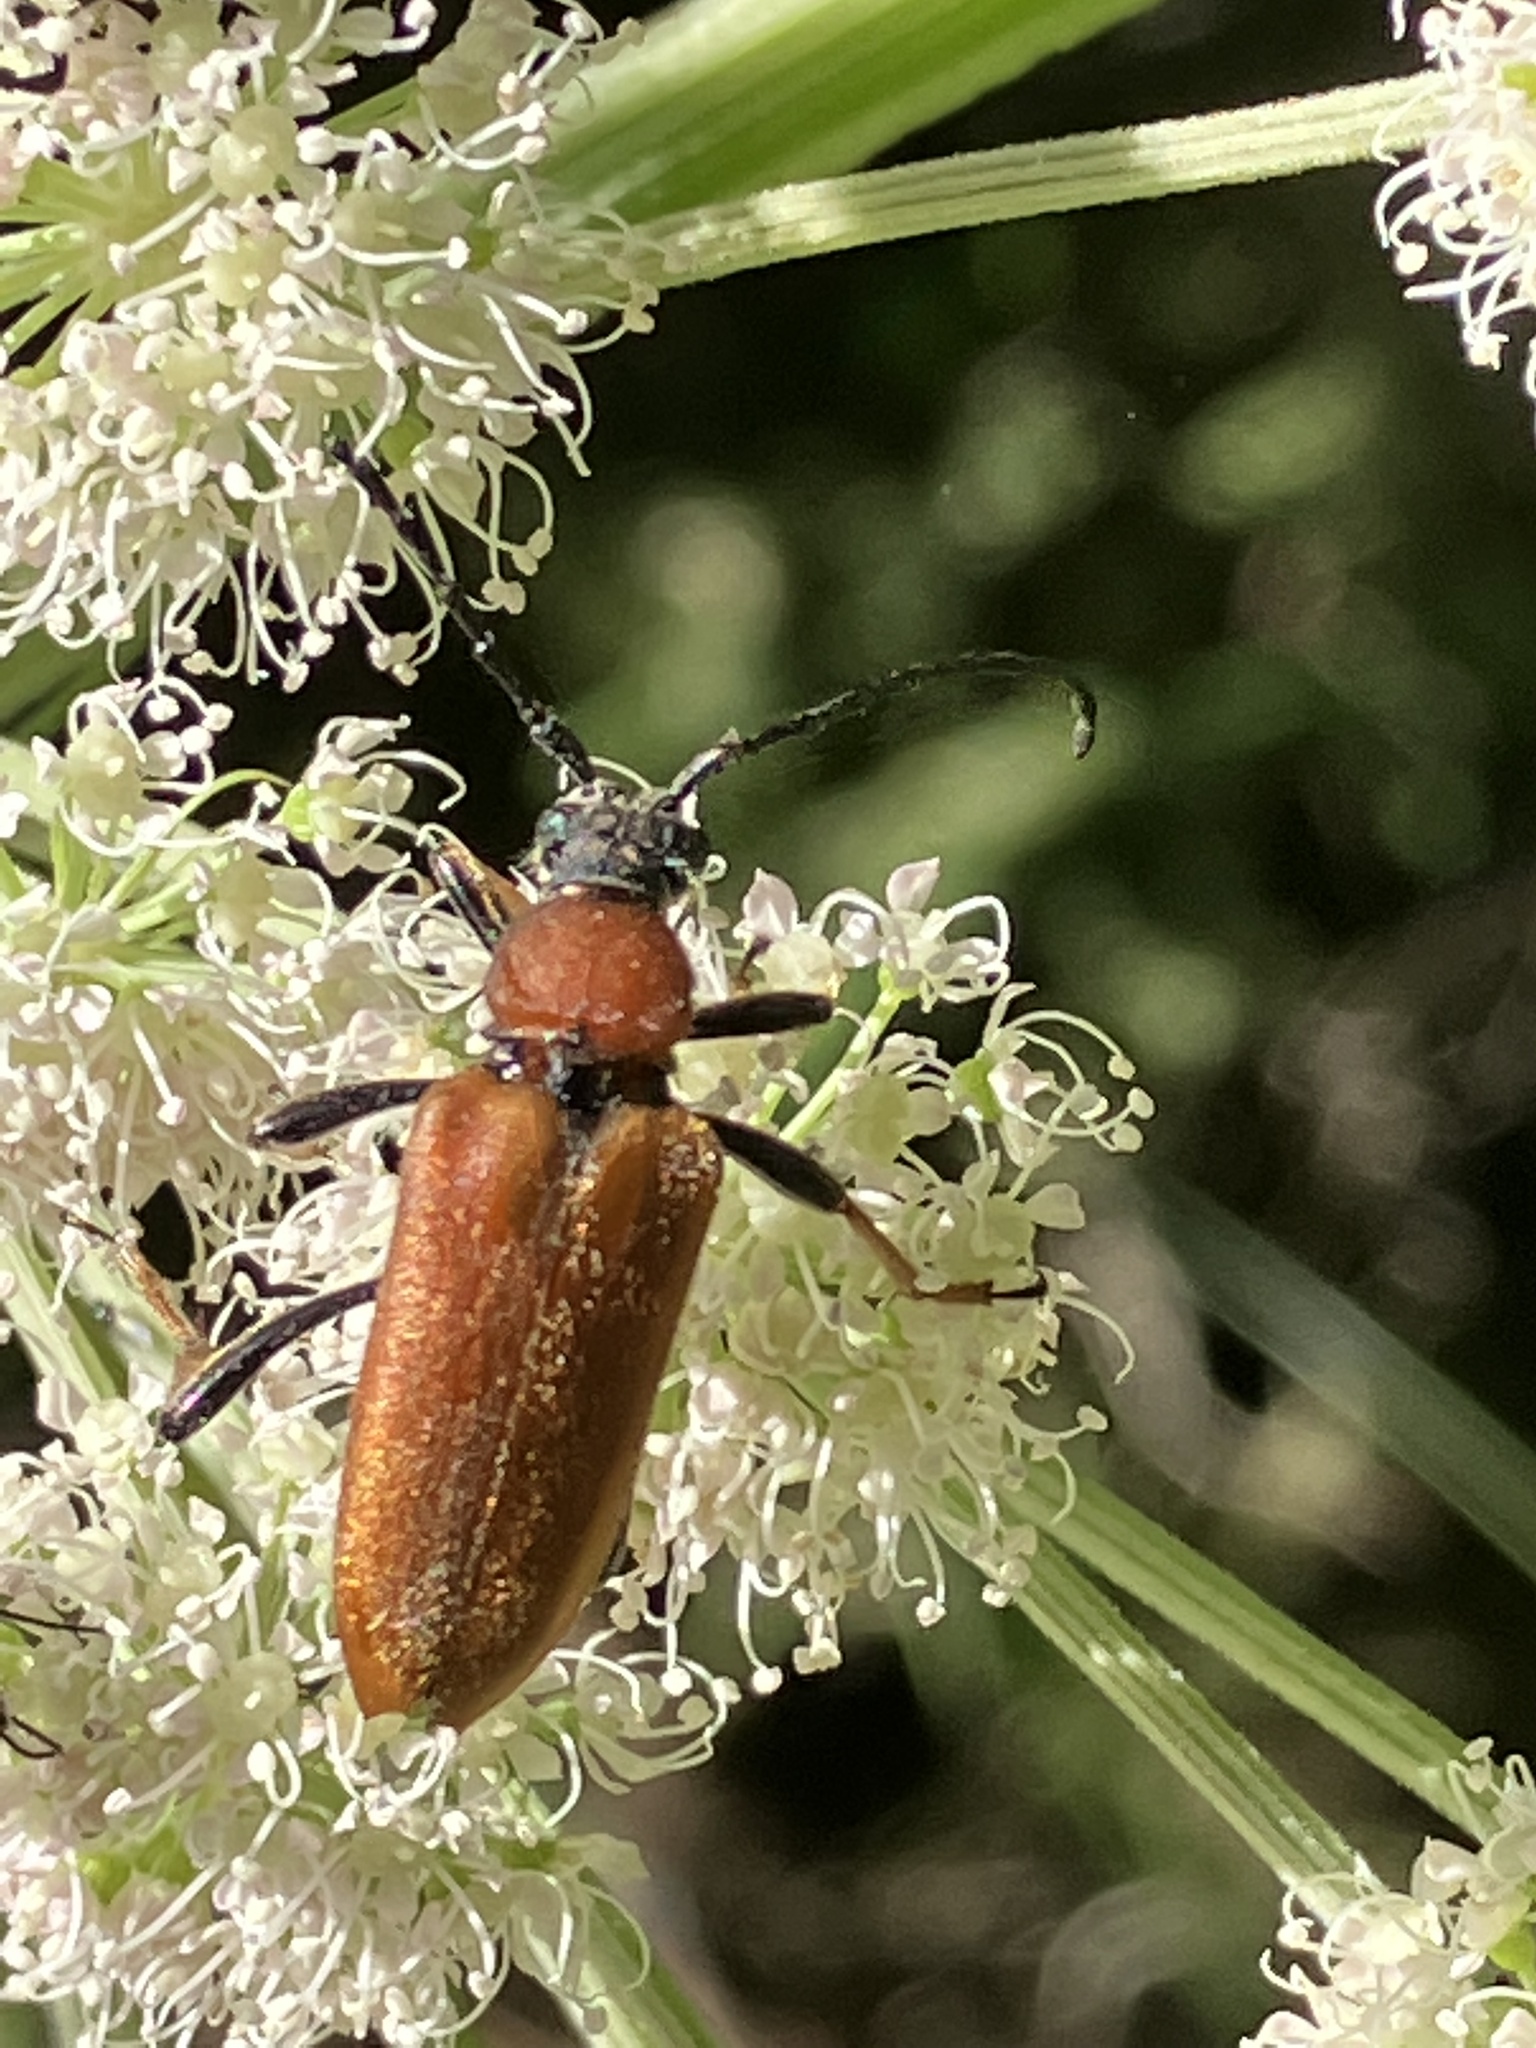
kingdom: Animalia
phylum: Arthropoda
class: Insecta
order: Coleoptera
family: Cerambycidae
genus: Stictoleptura
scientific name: Stictoleptura rubra
